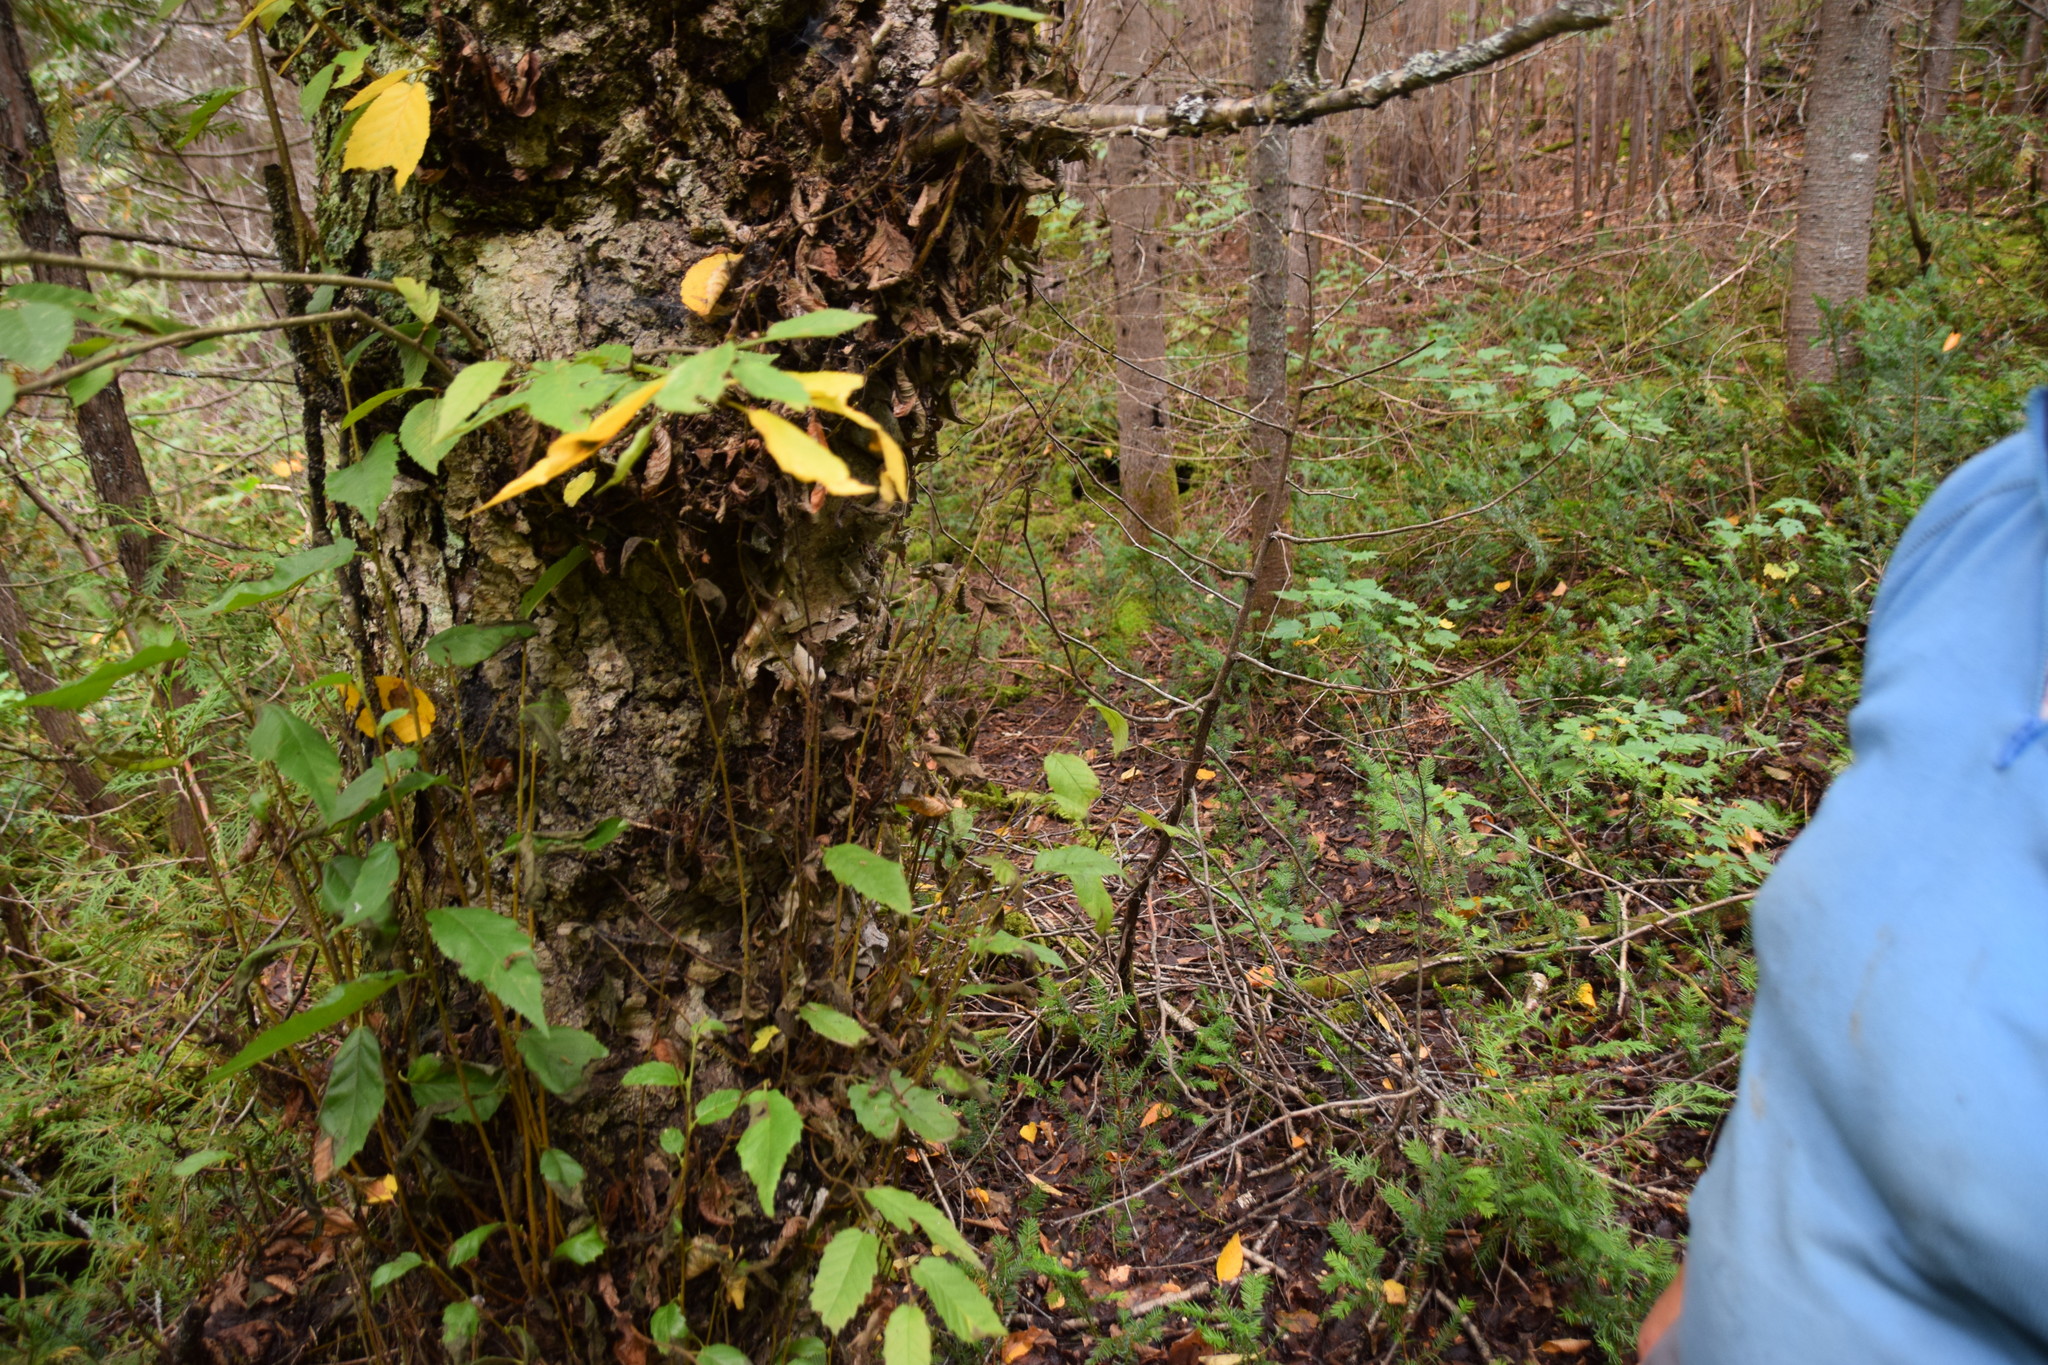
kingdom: Plantae
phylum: Tracheophyta
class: Magnoliopsida
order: Fagales
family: Betulaceae
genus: Betula
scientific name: Betula alleghaniensis
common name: Yellow birch
